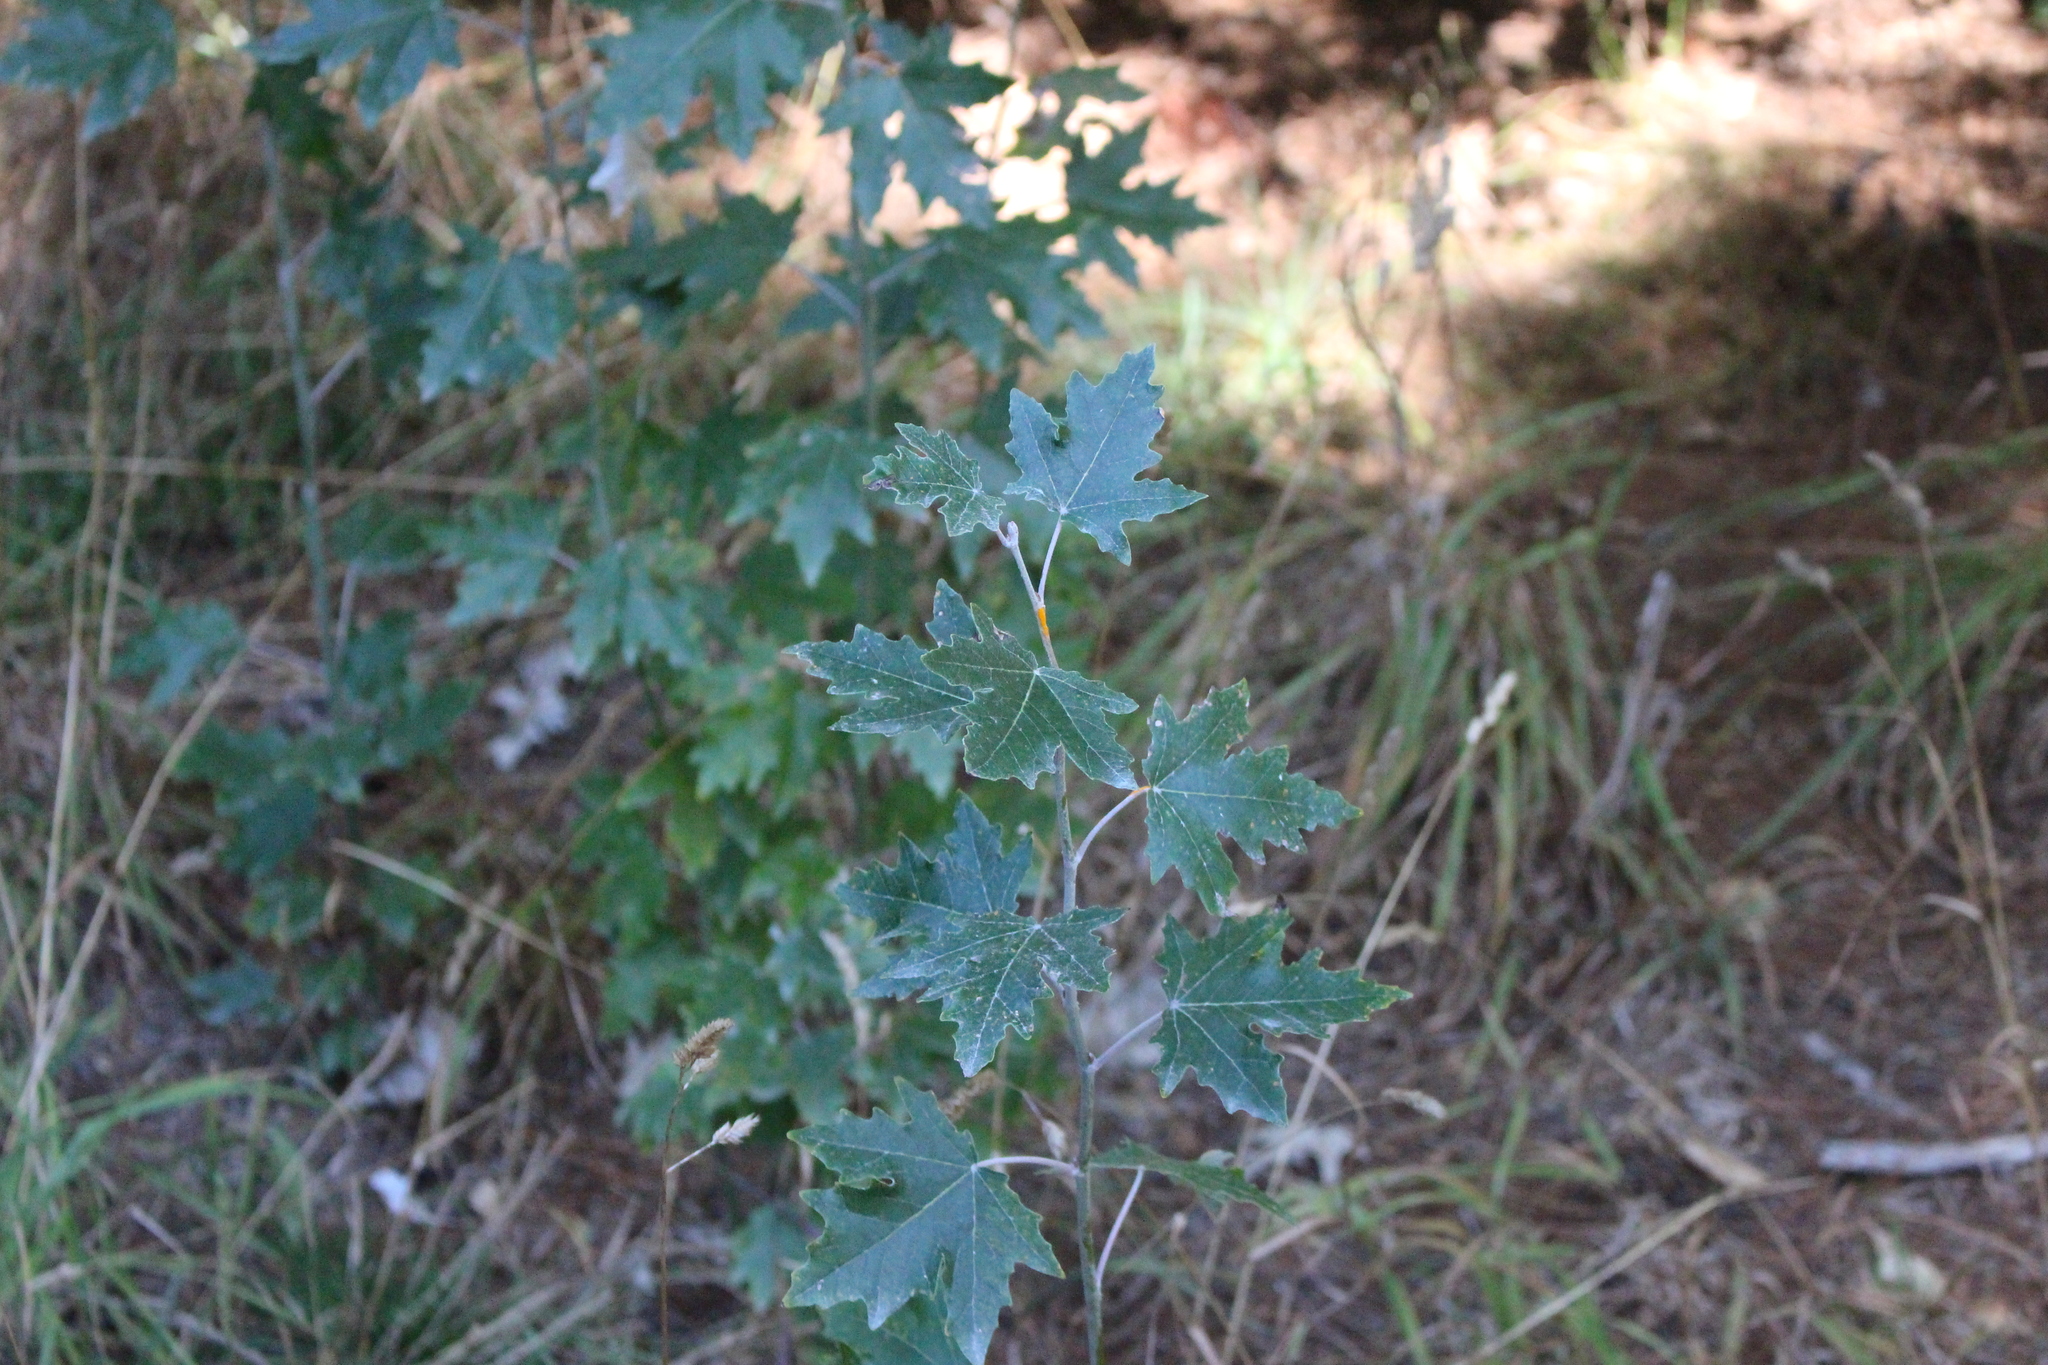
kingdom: Plantae
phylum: Tracheophyta
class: Magnoliopsida
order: Malpighiales
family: Salicaceae
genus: Populus
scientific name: Populus alba
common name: White poplar
